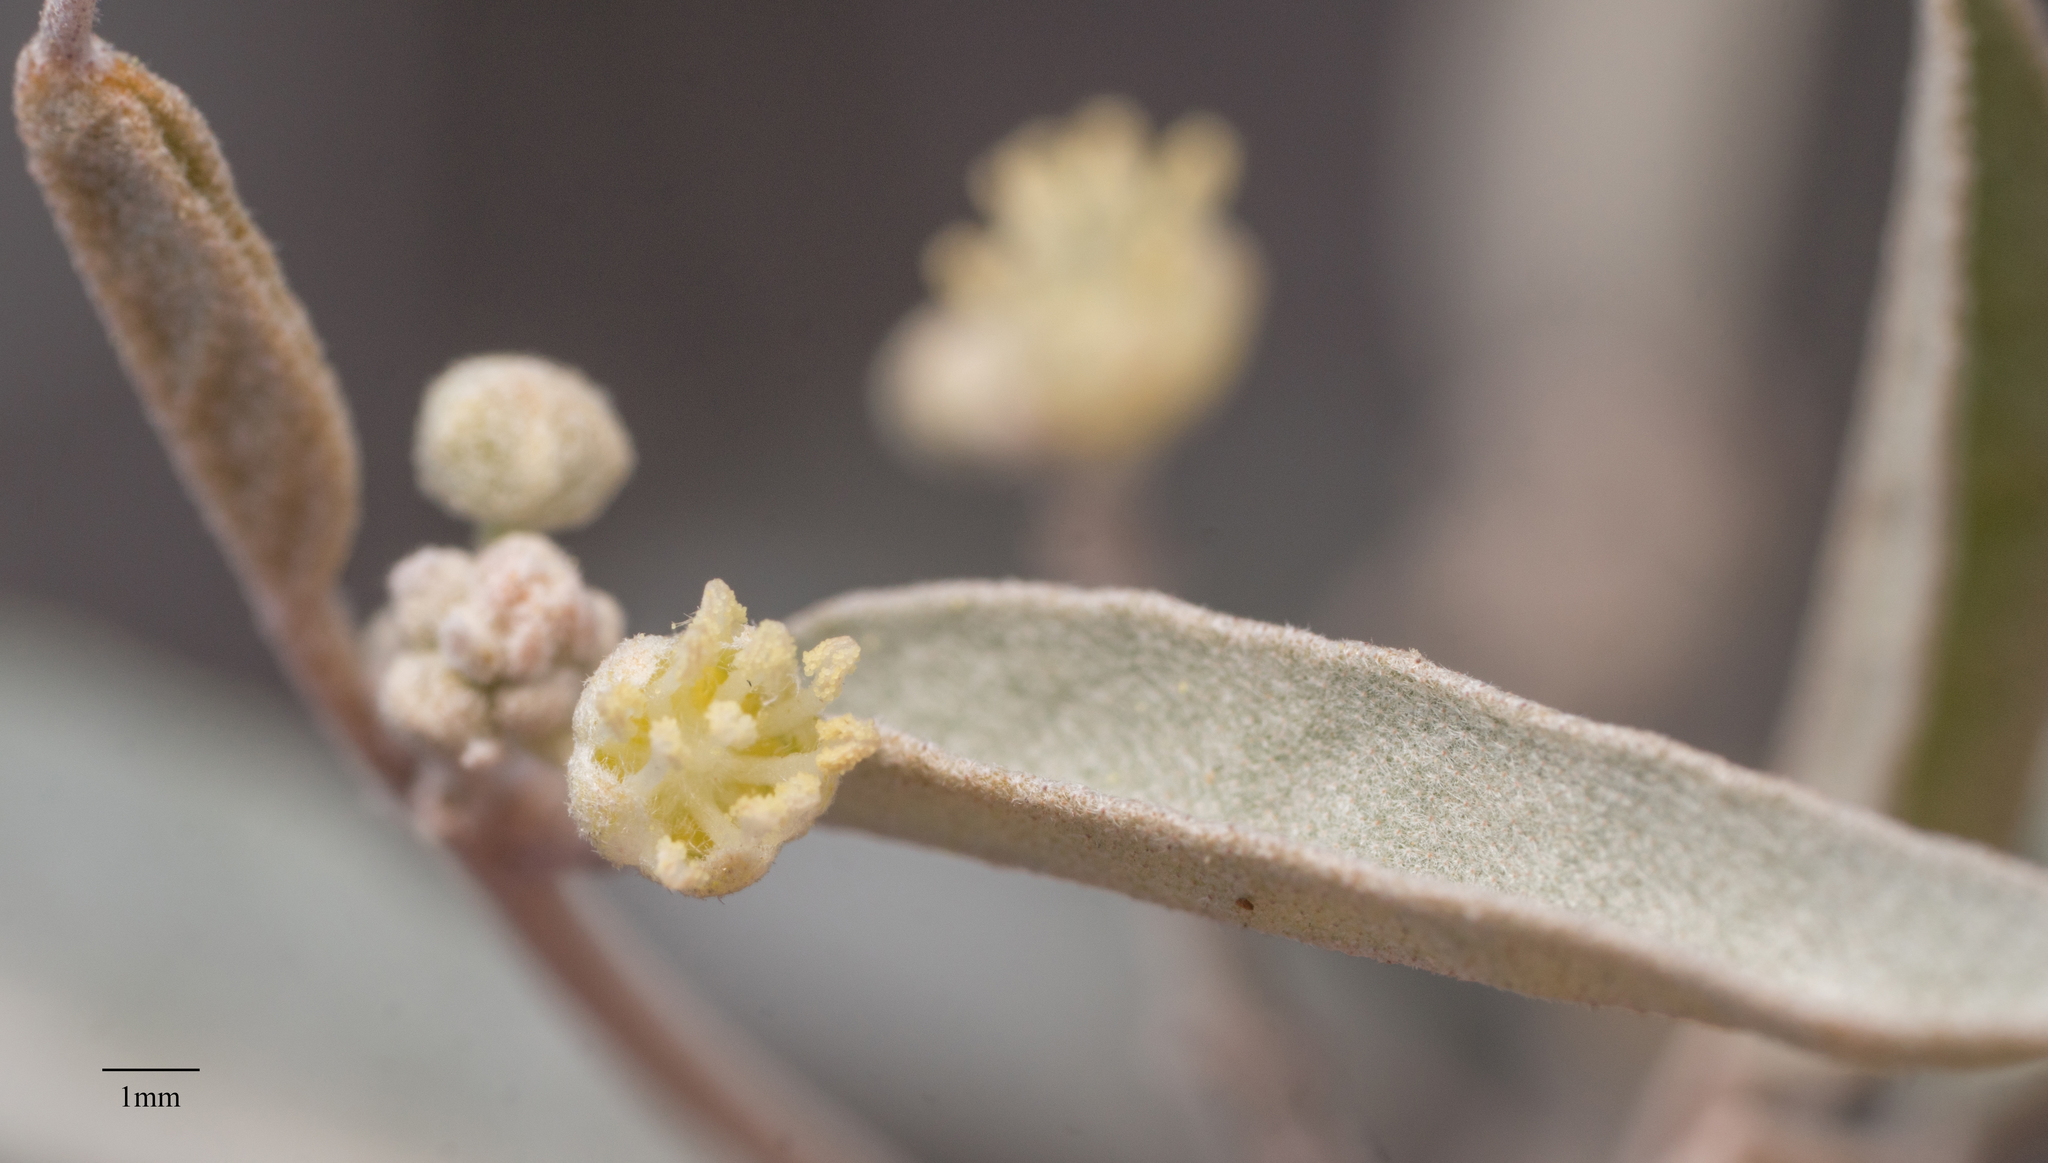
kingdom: Plantae
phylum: Tracheophyta
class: Magnoliopsida
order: Malpighiales
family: Euphorbiaceae
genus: Croton
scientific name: Croton californicus
